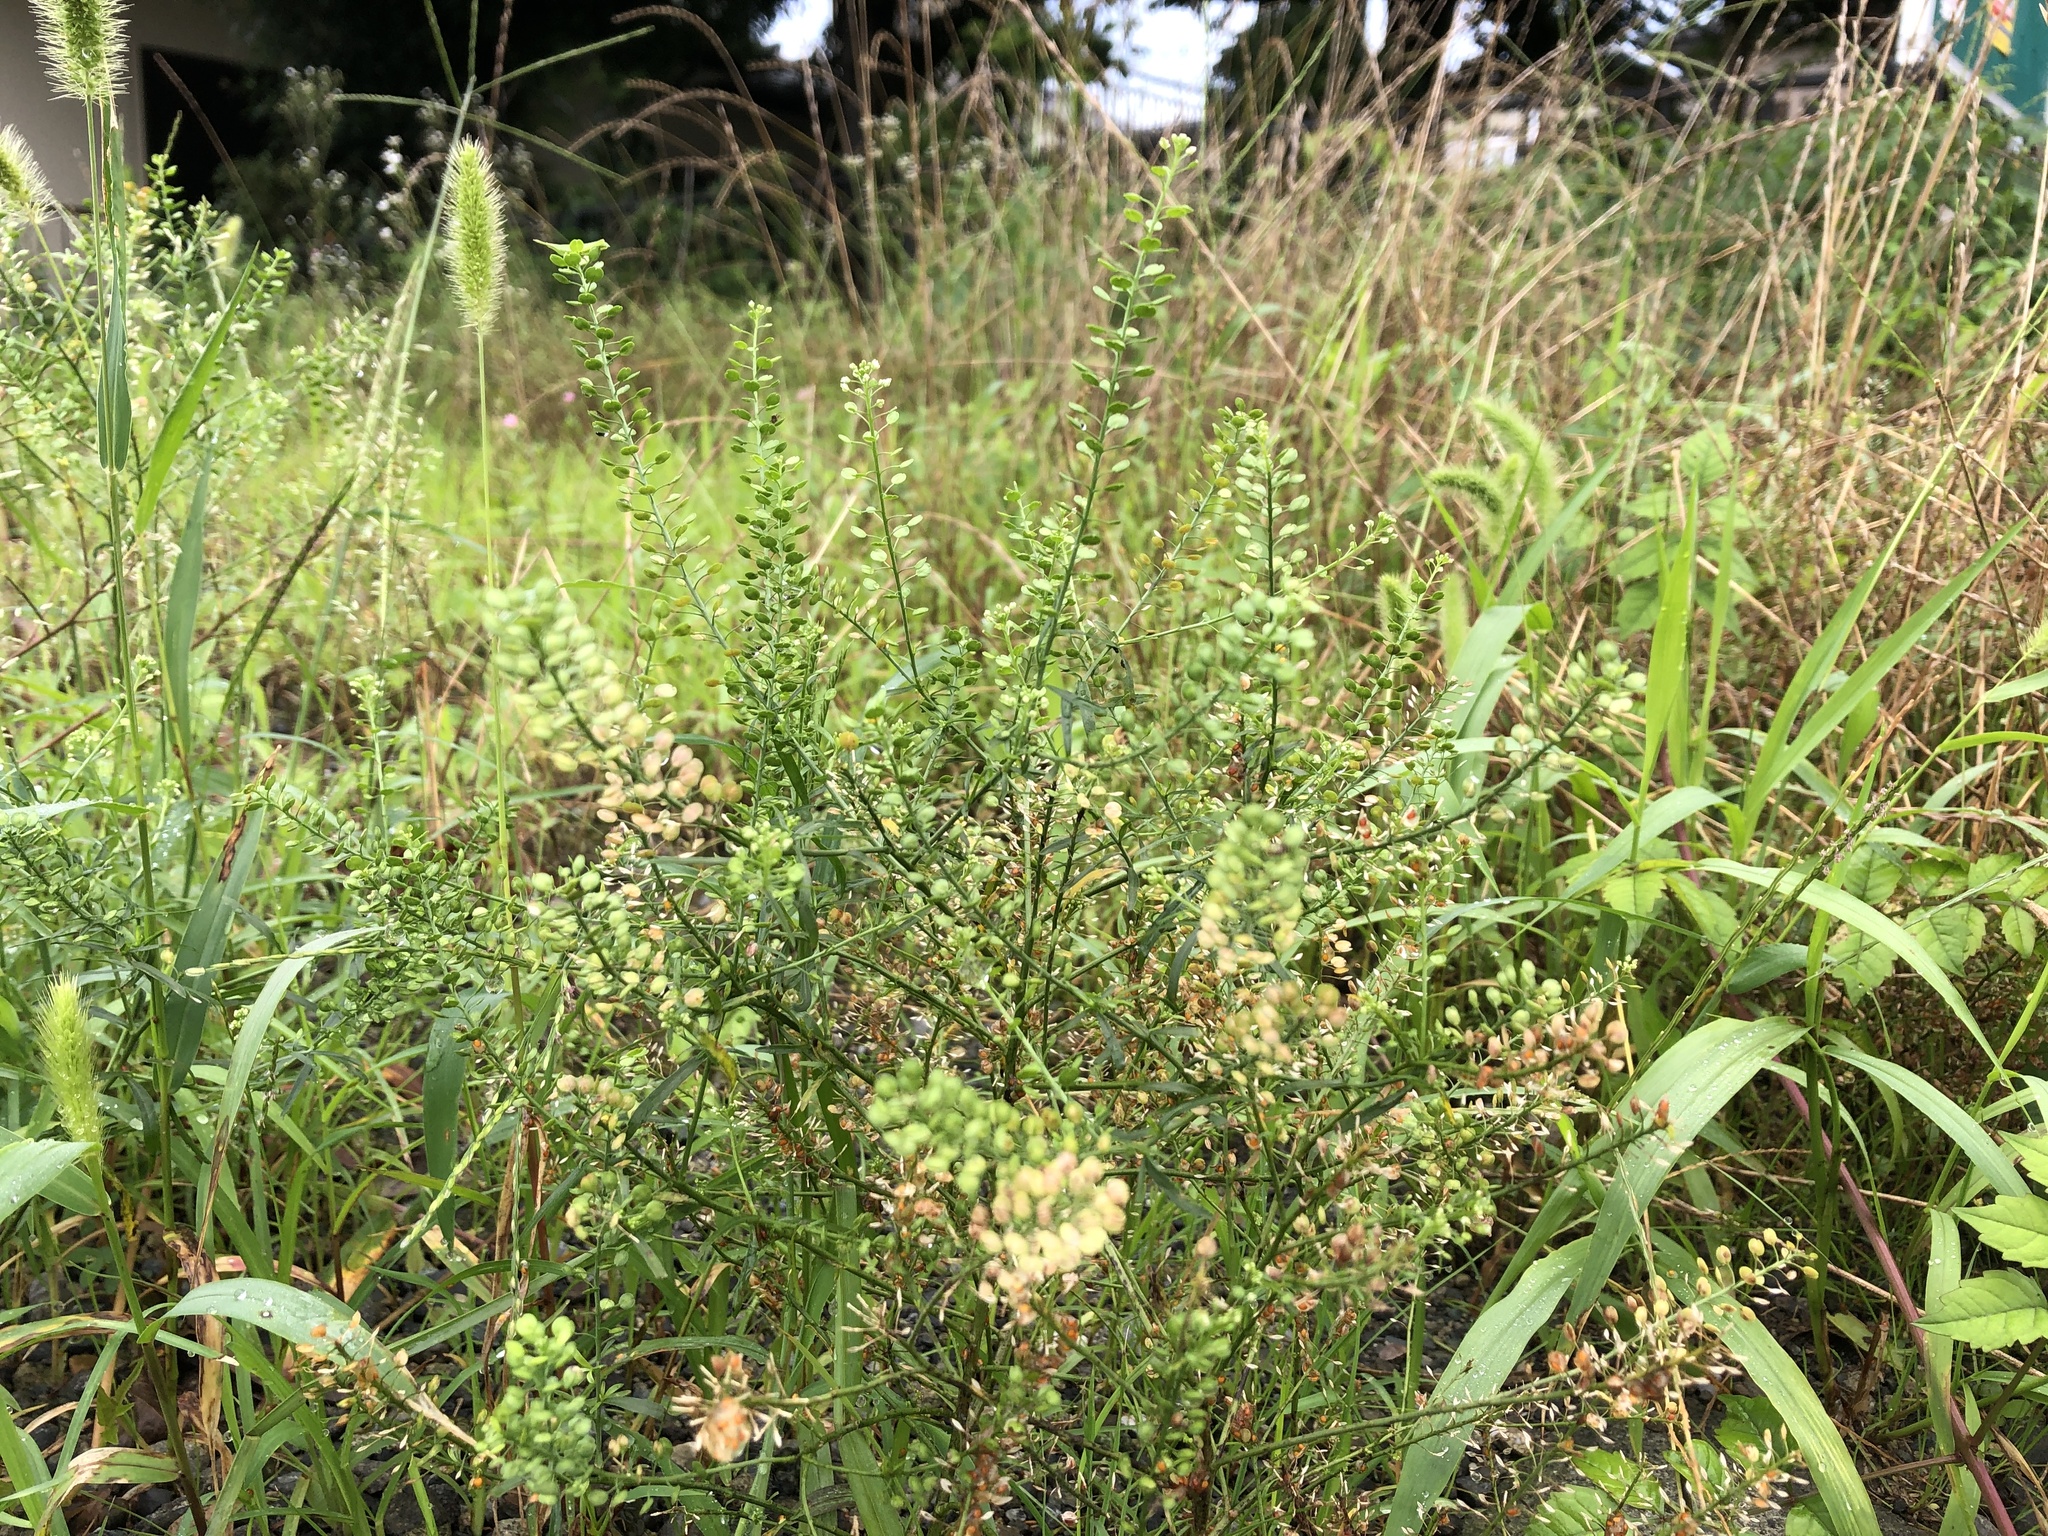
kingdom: Plantae
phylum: Tracheophyta
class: Magnoliopsida
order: Brassicales
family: Brassicaceae
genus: Lepidium
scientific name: Lepidium virginicum
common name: Least pepperwort
